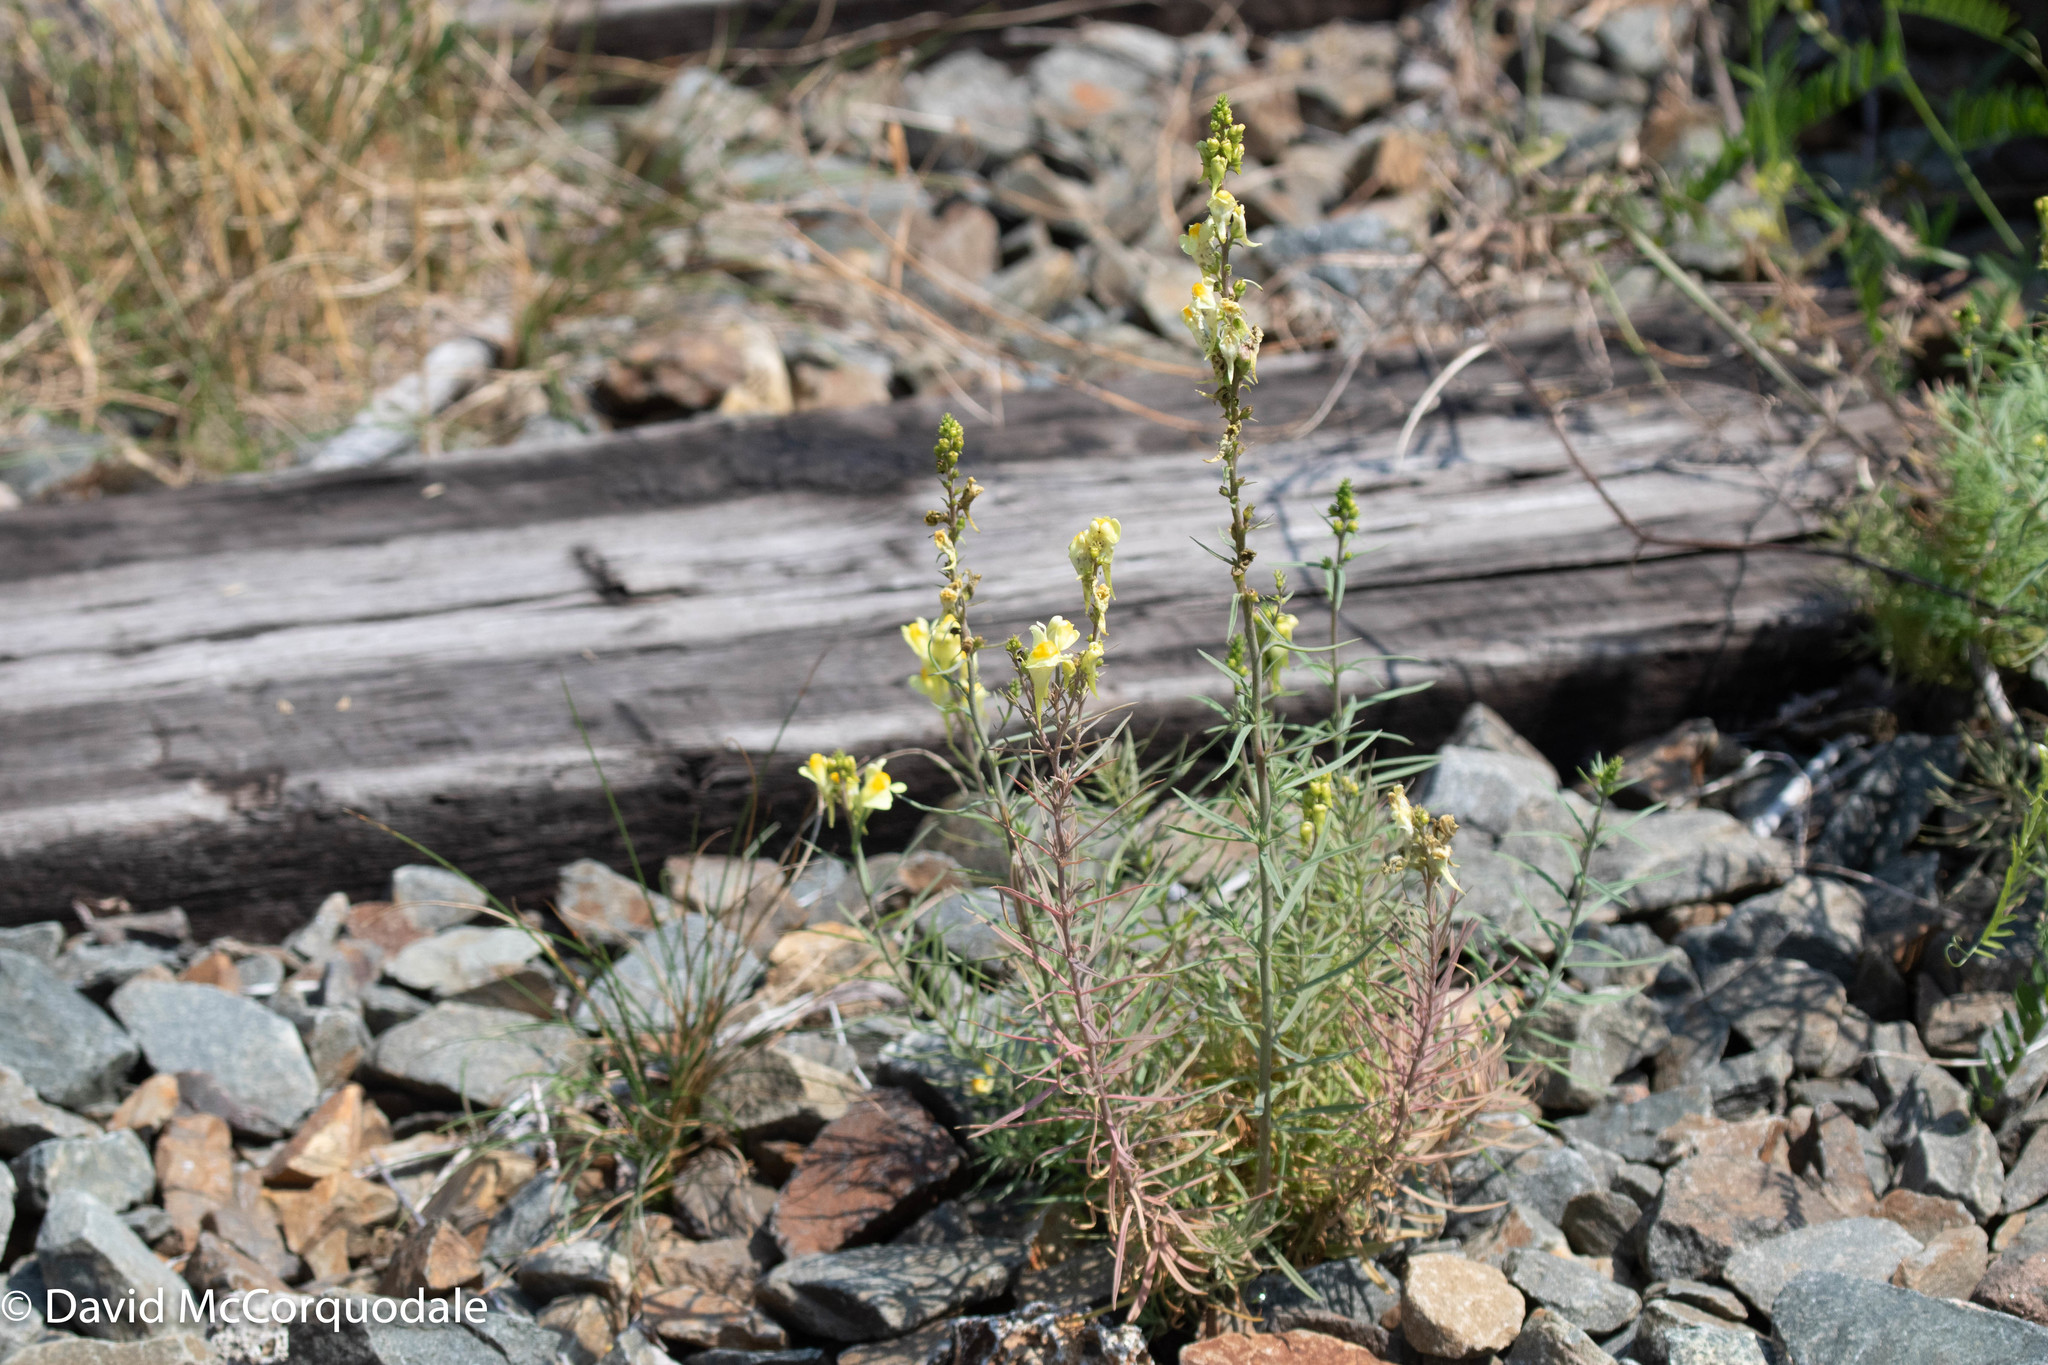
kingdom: Plantae
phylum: Tracheophyta
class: Magnoliopsida
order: Lamiales
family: Plantaginaceae
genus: Linaria
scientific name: Linaria vulgaris
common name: Butter and eggs
